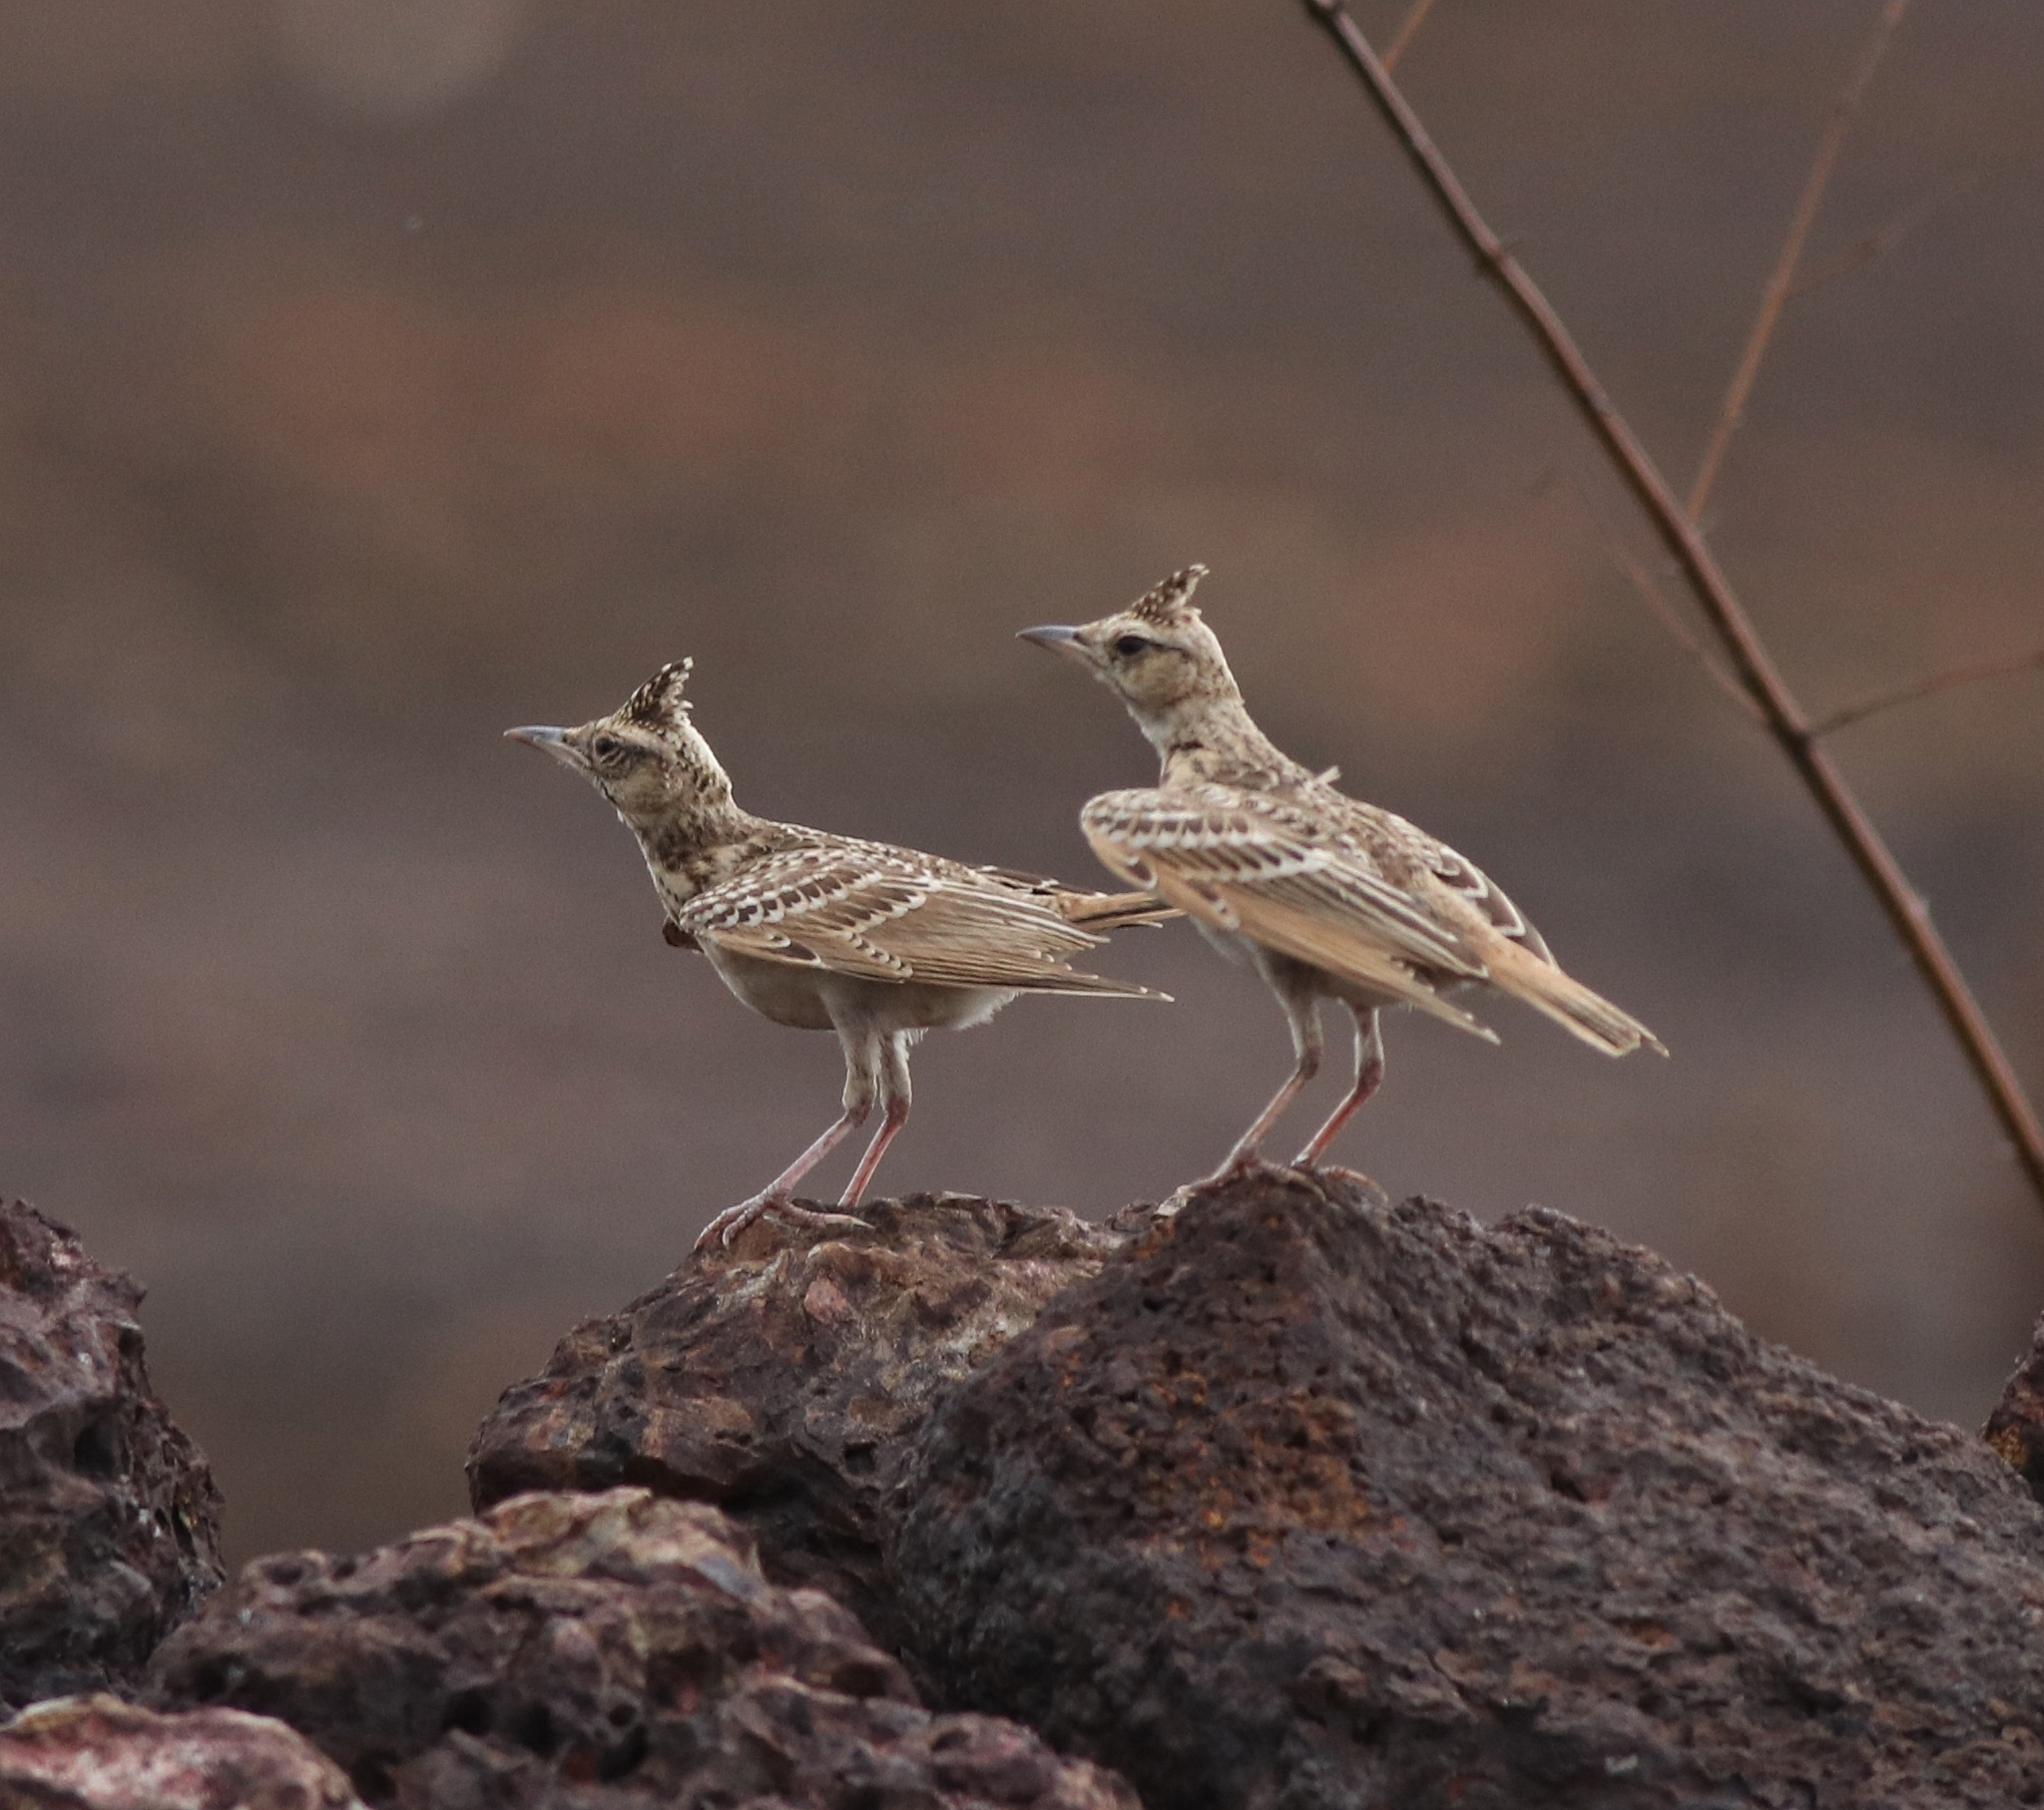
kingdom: Animalia
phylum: Chordata
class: Aves
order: Passeriformes
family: Alaudidae
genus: Galerida
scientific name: Galerida malabarica
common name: Malabar lark
